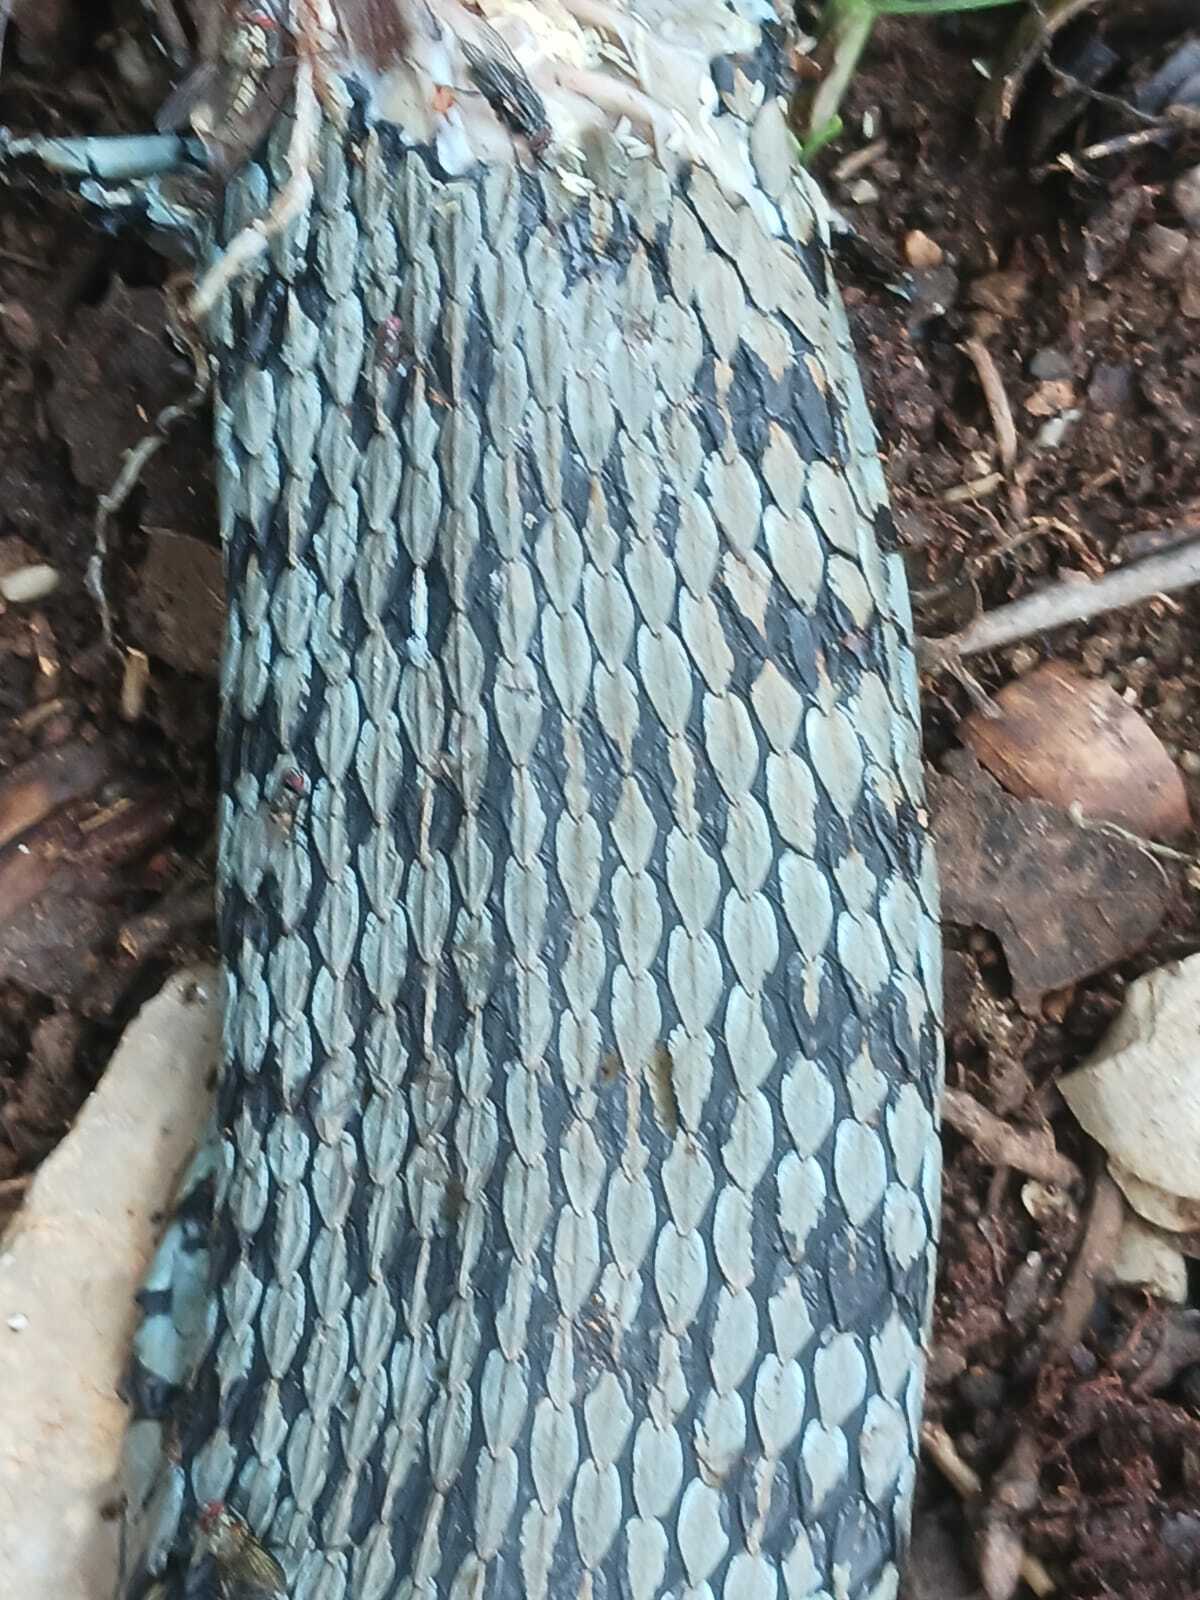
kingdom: Animalia
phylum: Chordata
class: Squamata
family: Colubridae
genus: Natrix
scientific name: Natrix helvetica
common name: Banded grass snake
